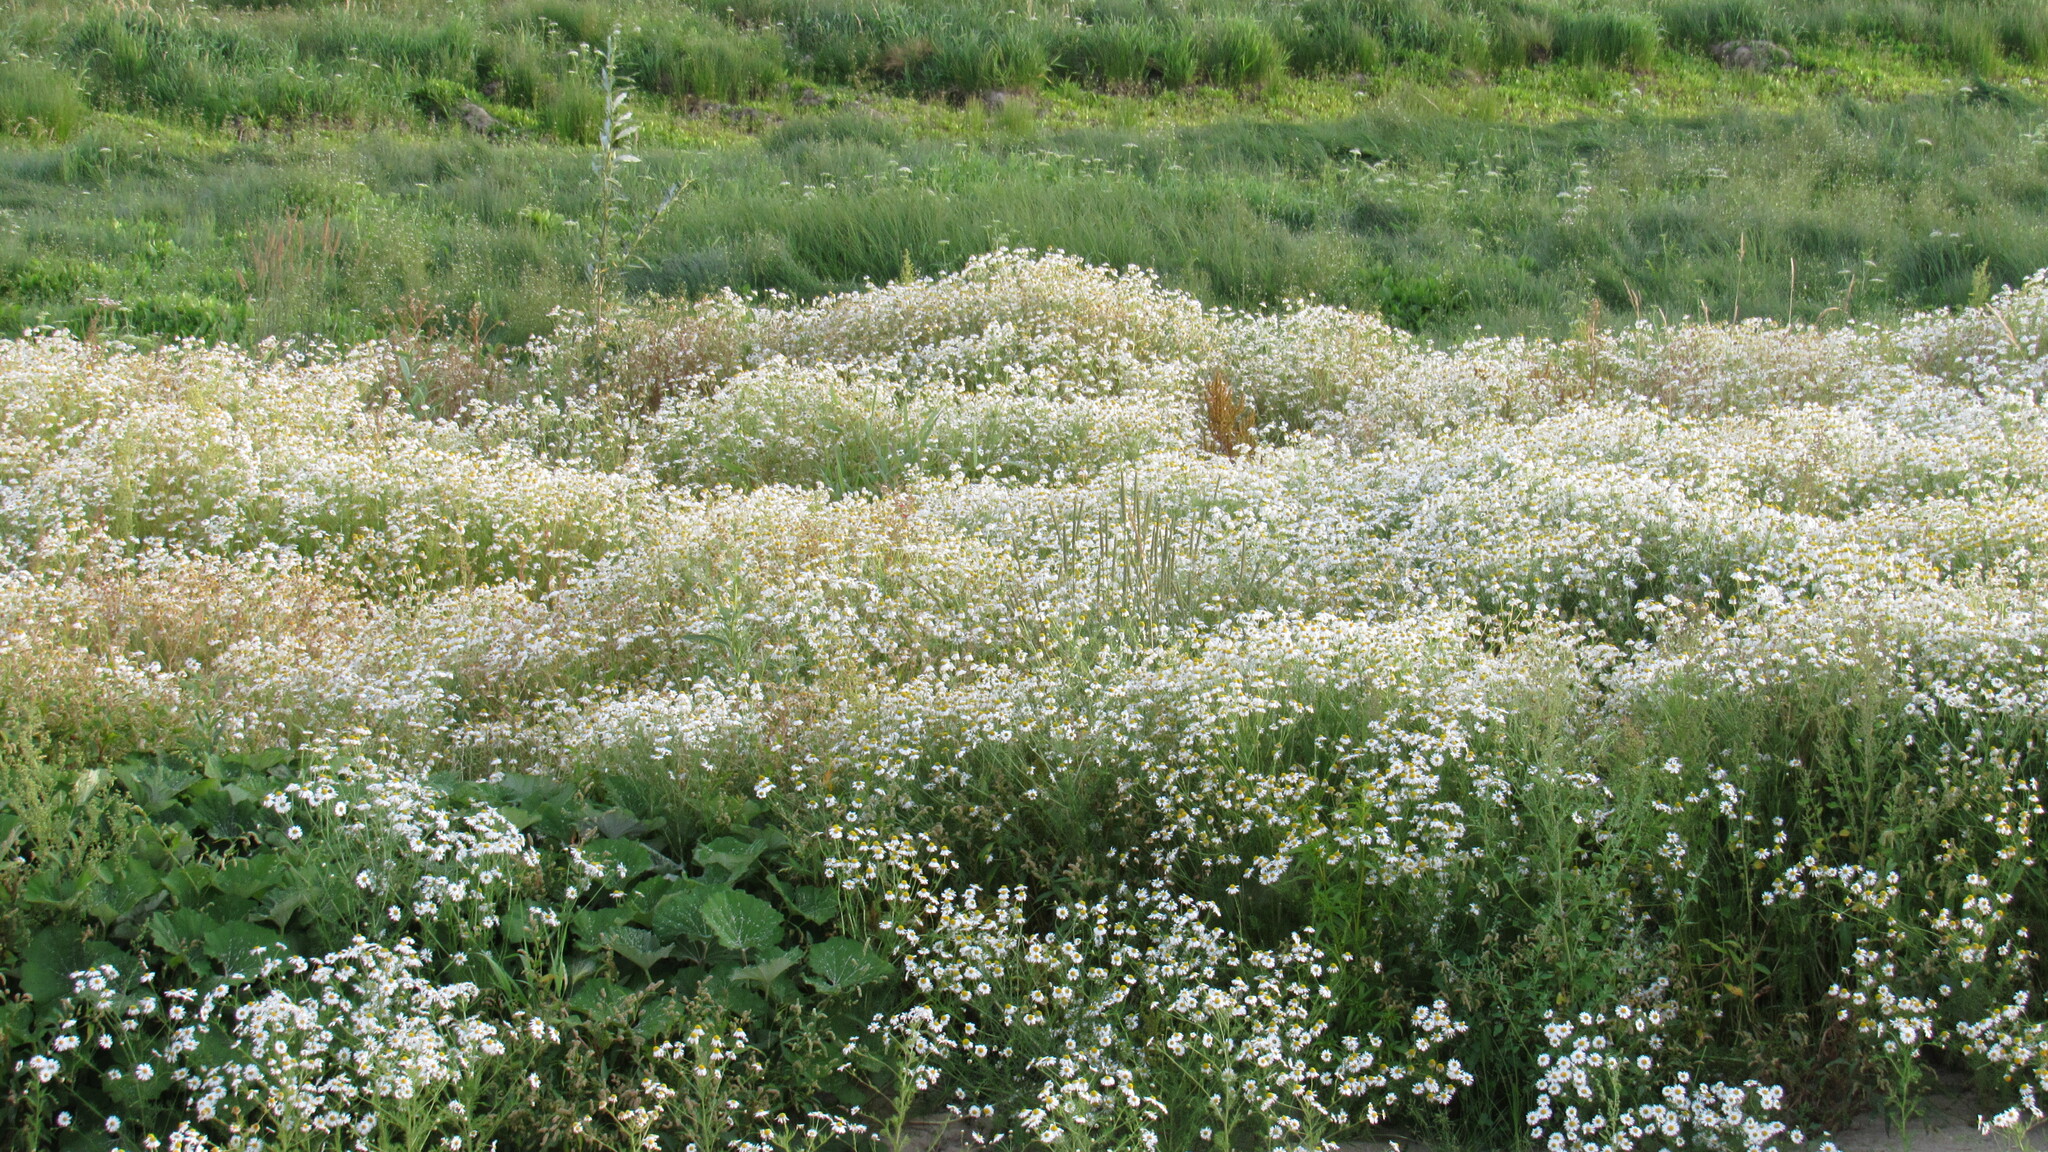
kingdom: Plantae
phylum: Tracheophyta
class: Magnoliopsida
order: Asterales
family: Asteraceae
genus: Tripleurospermum
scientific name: Tripleurospermum inodorum
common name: Scentless mayweed
